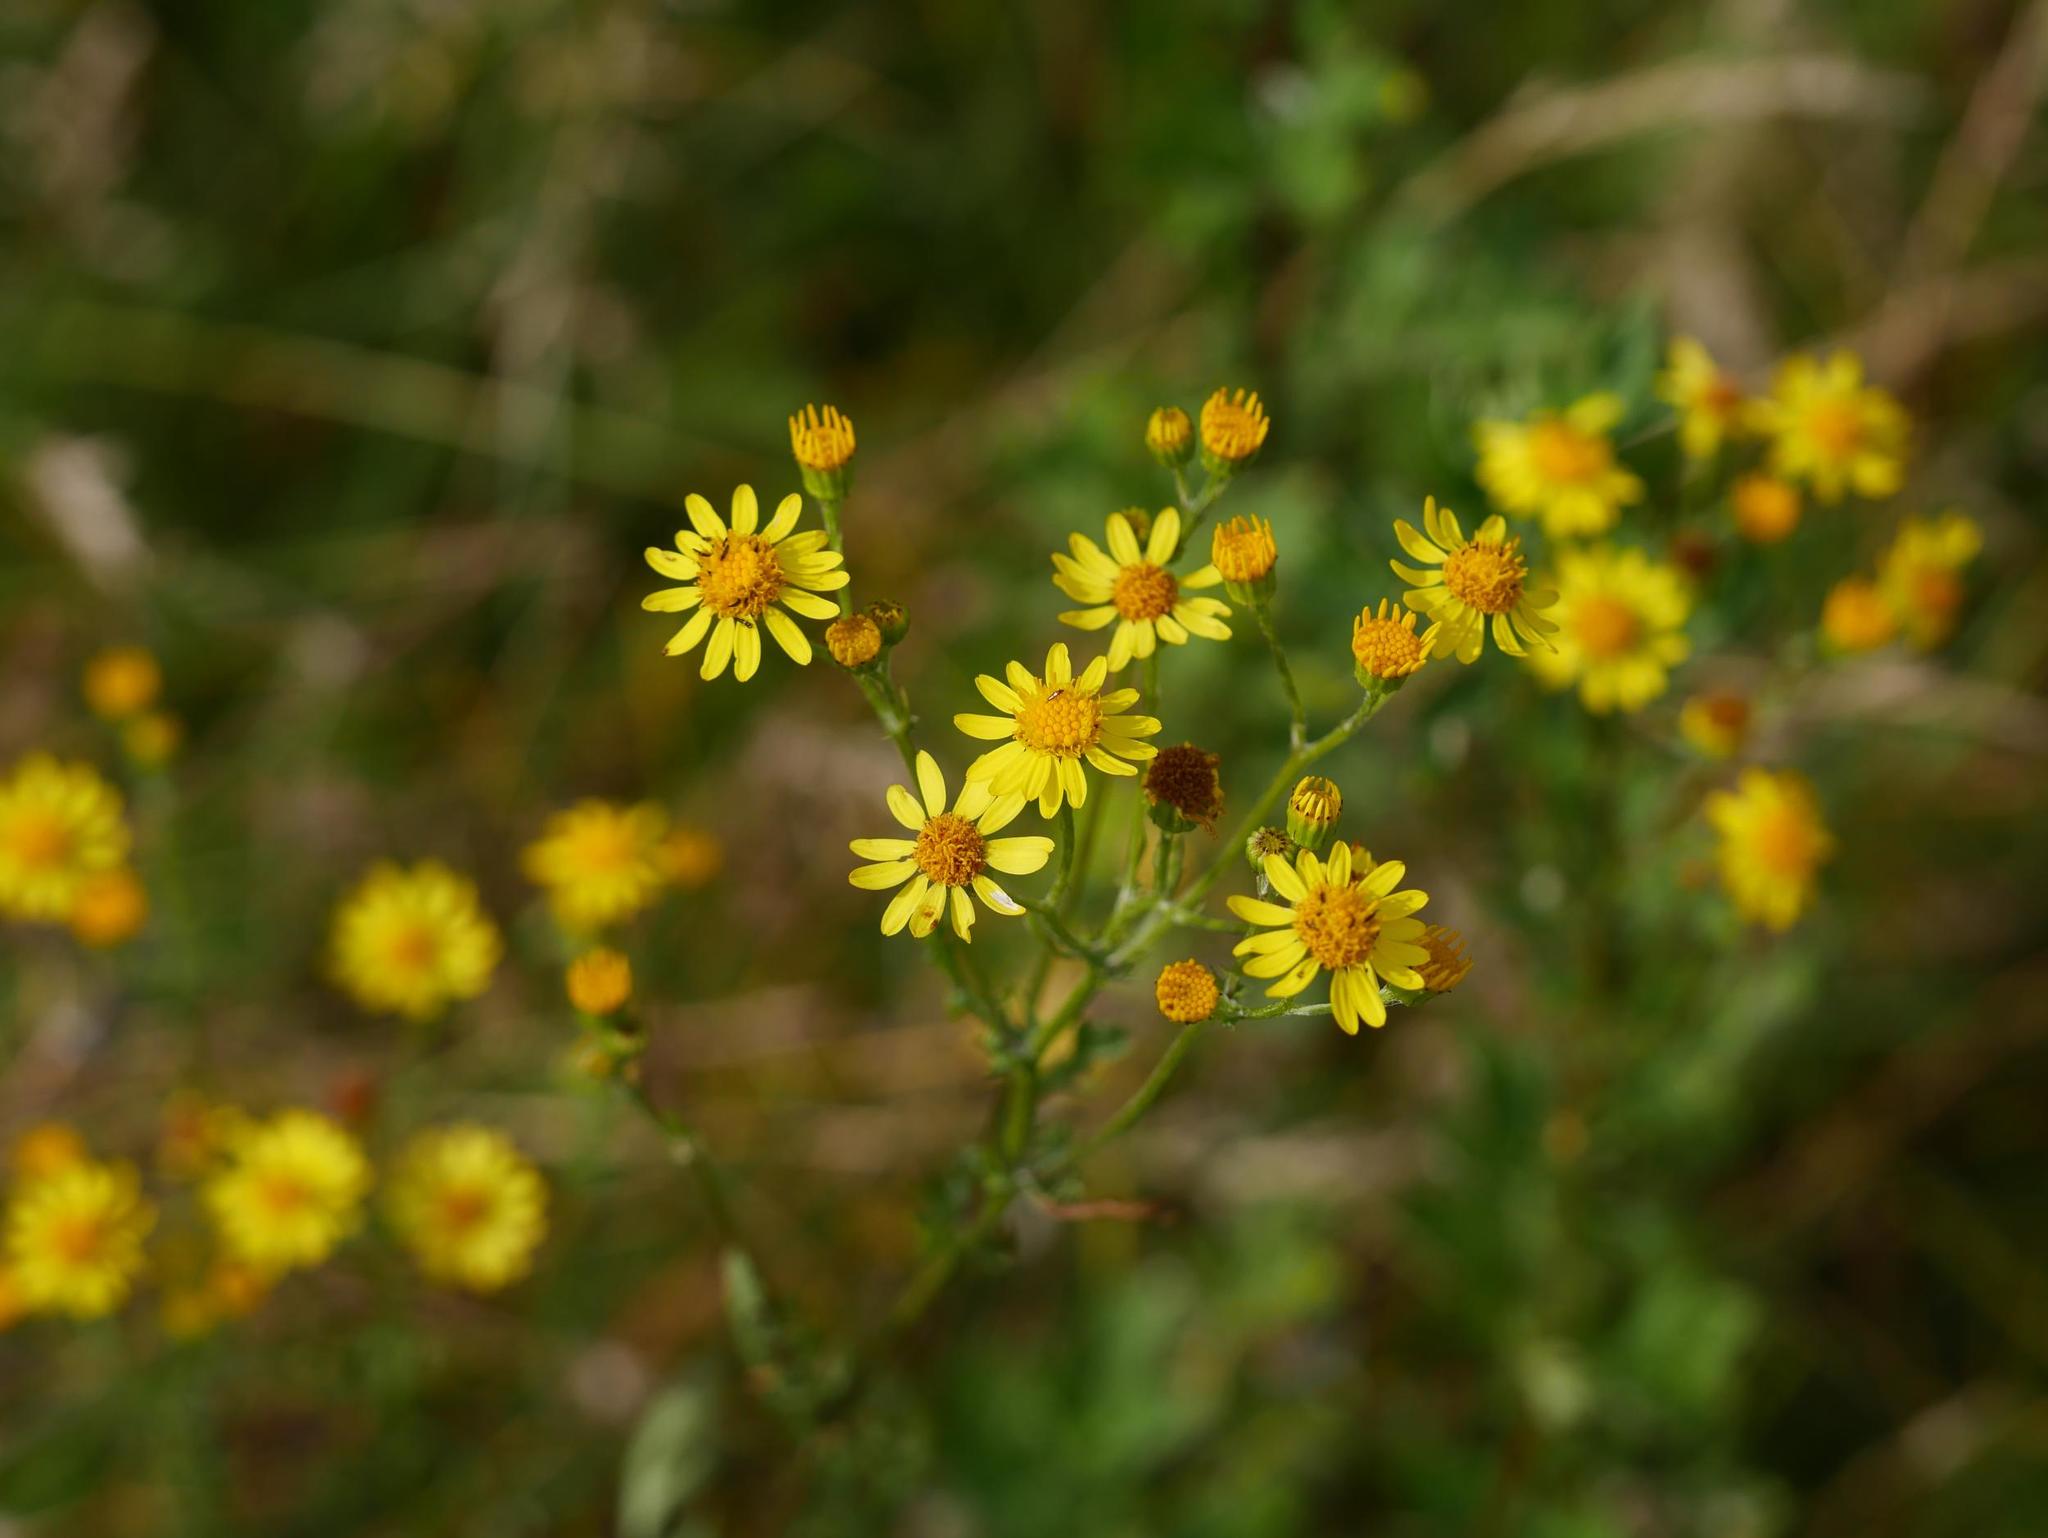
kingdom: Plantae
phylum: Tracheophyta
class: Magnoliopsida
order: Asterales
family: Asteraceae
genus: Jacobaea
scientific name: Jacobaea vulgaris
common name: Stinking willie
